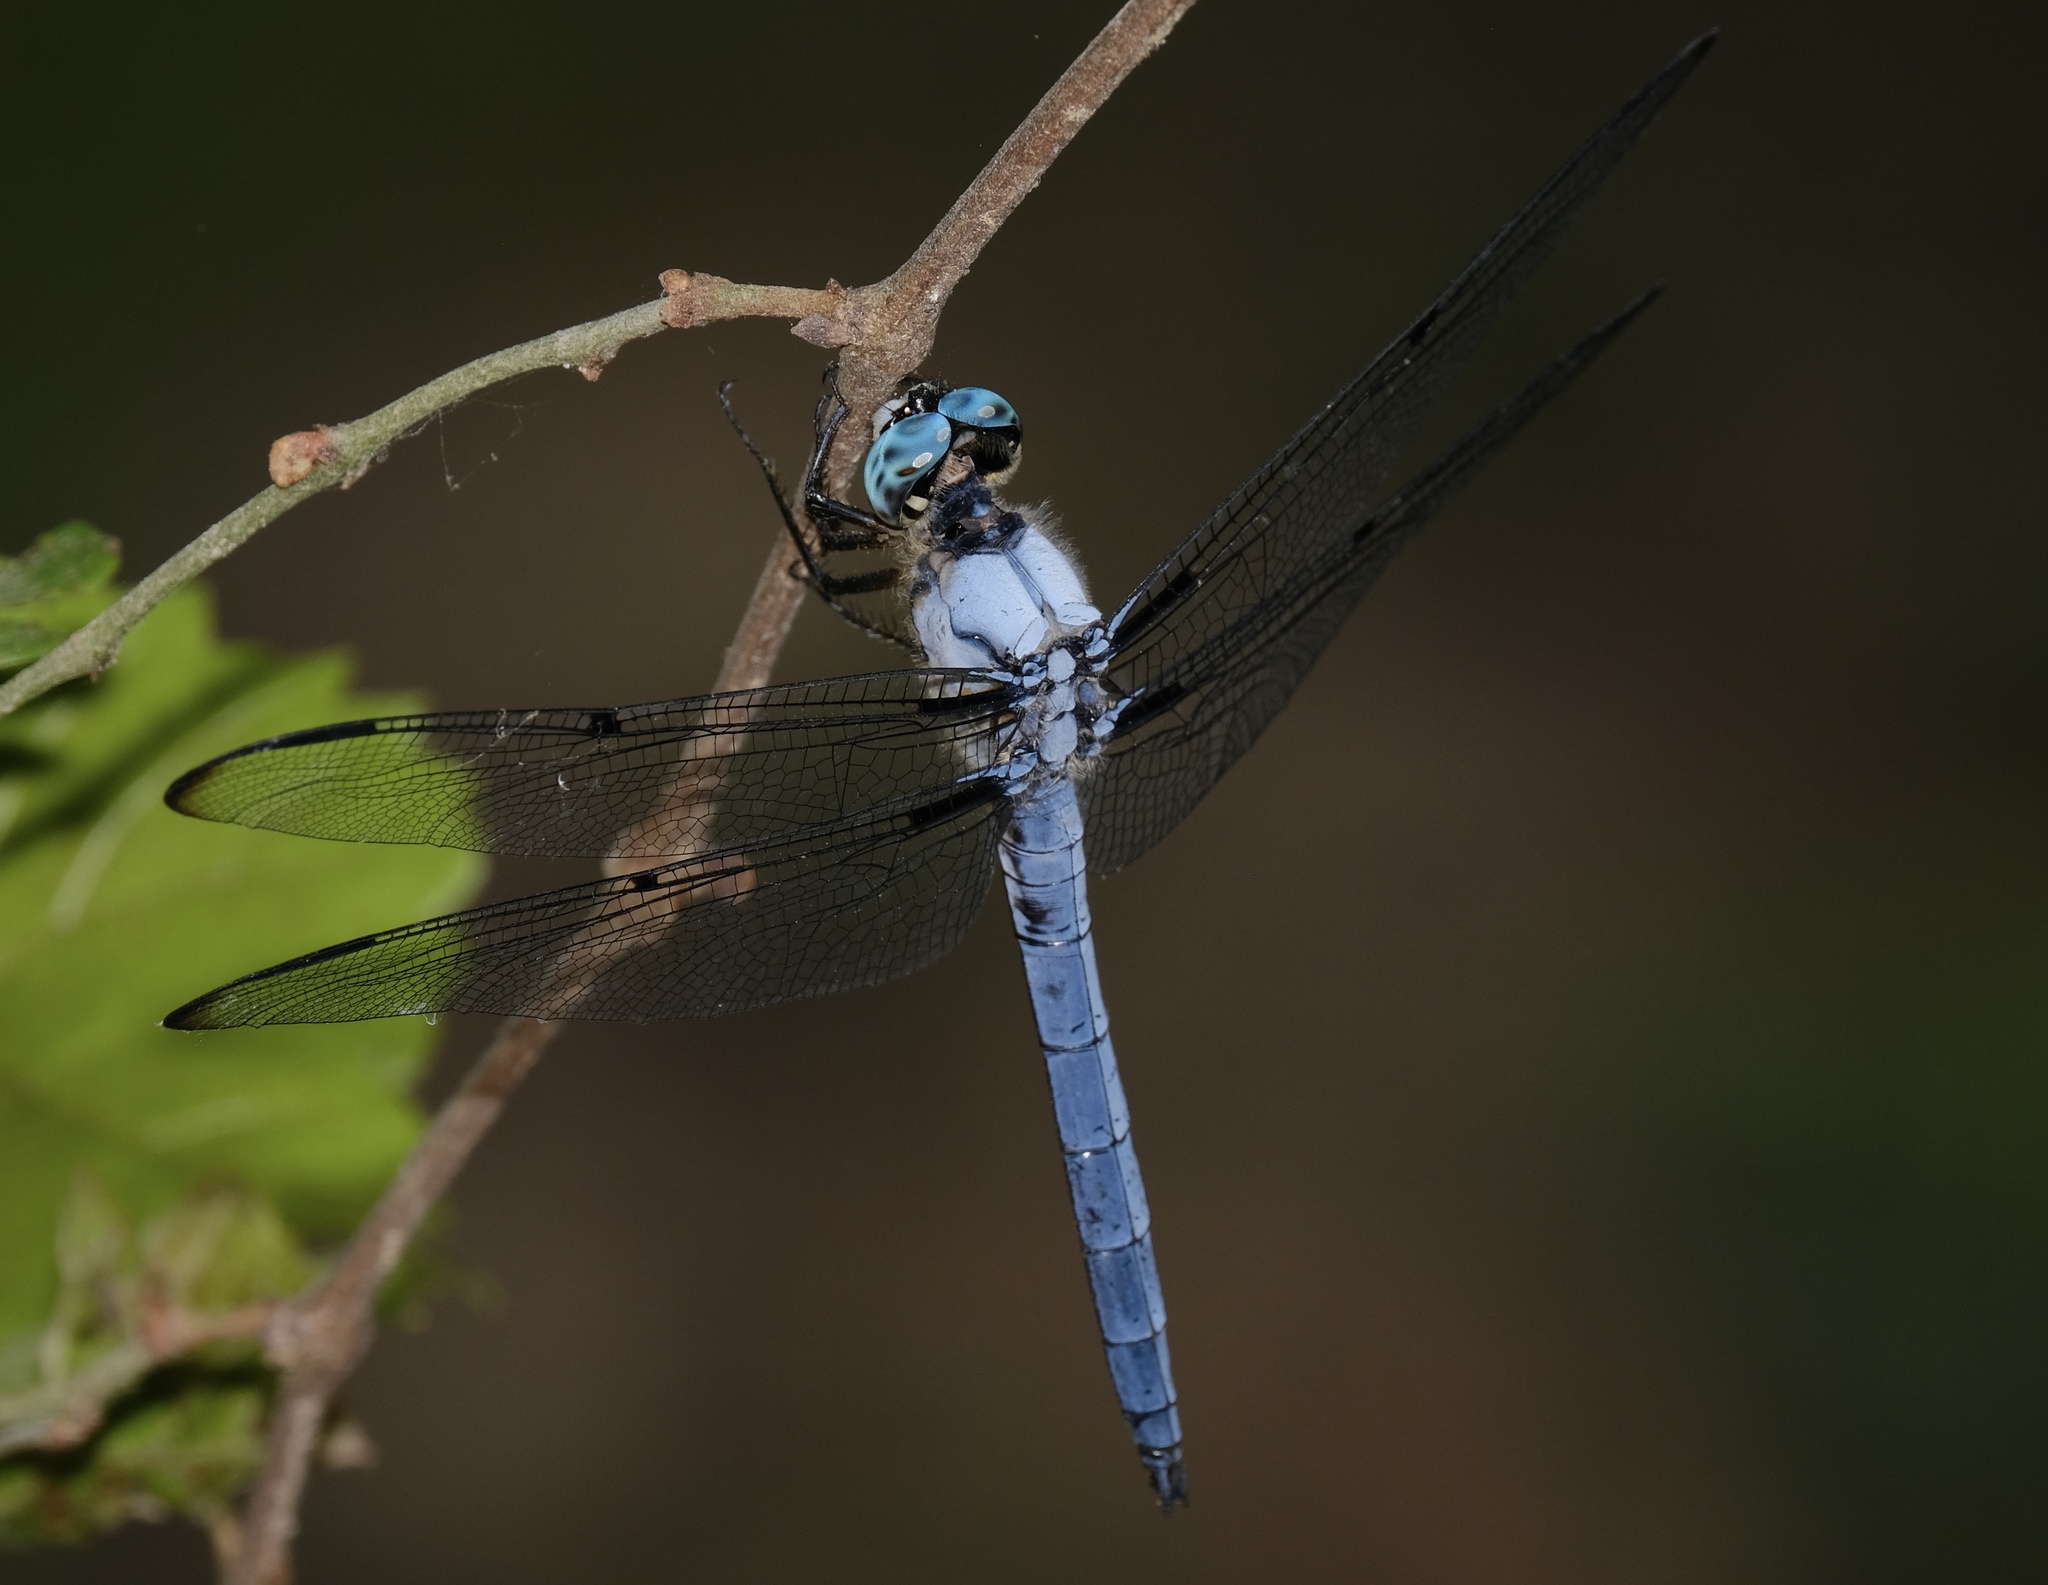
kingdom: Animalia
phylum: Arthropoda
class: Insecta
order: Odonata
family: Libellulidae
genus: Libellula
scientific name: Libellula vibrans
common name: Great blue skimmer
